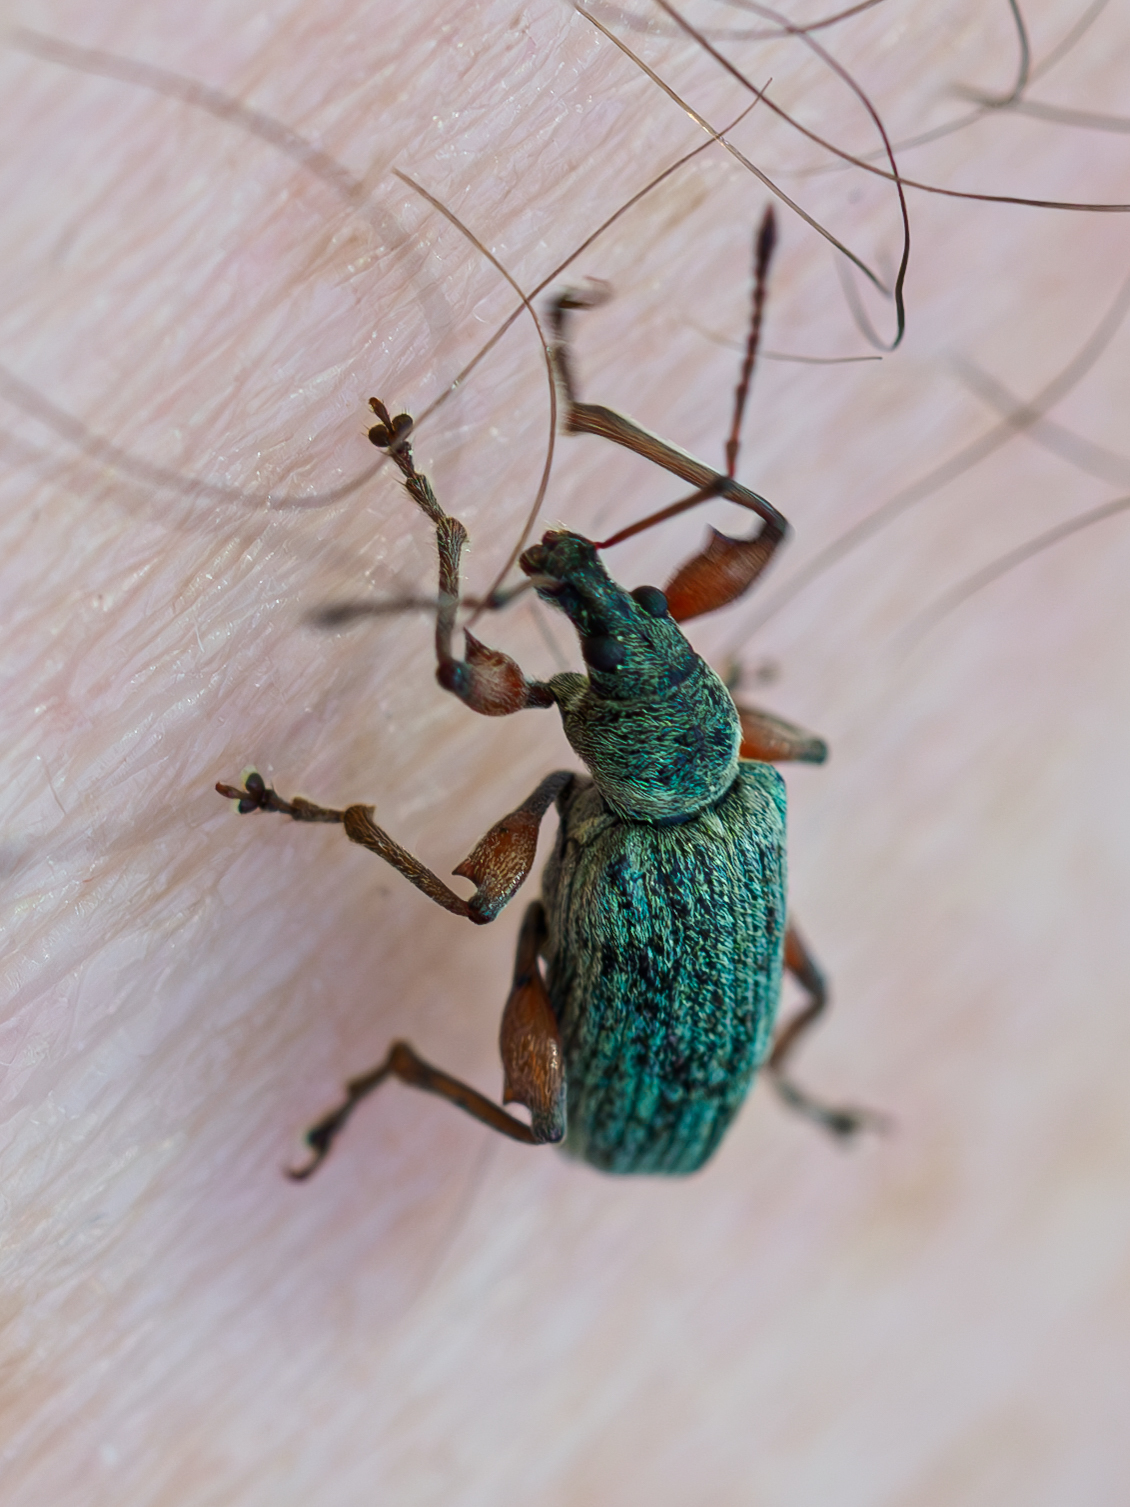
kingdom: Animalia
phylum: Arthropoda
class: Insecta
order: Coleoptera
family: Curculionidae
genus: Phyllobius
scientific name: Phyllobius glaucus
